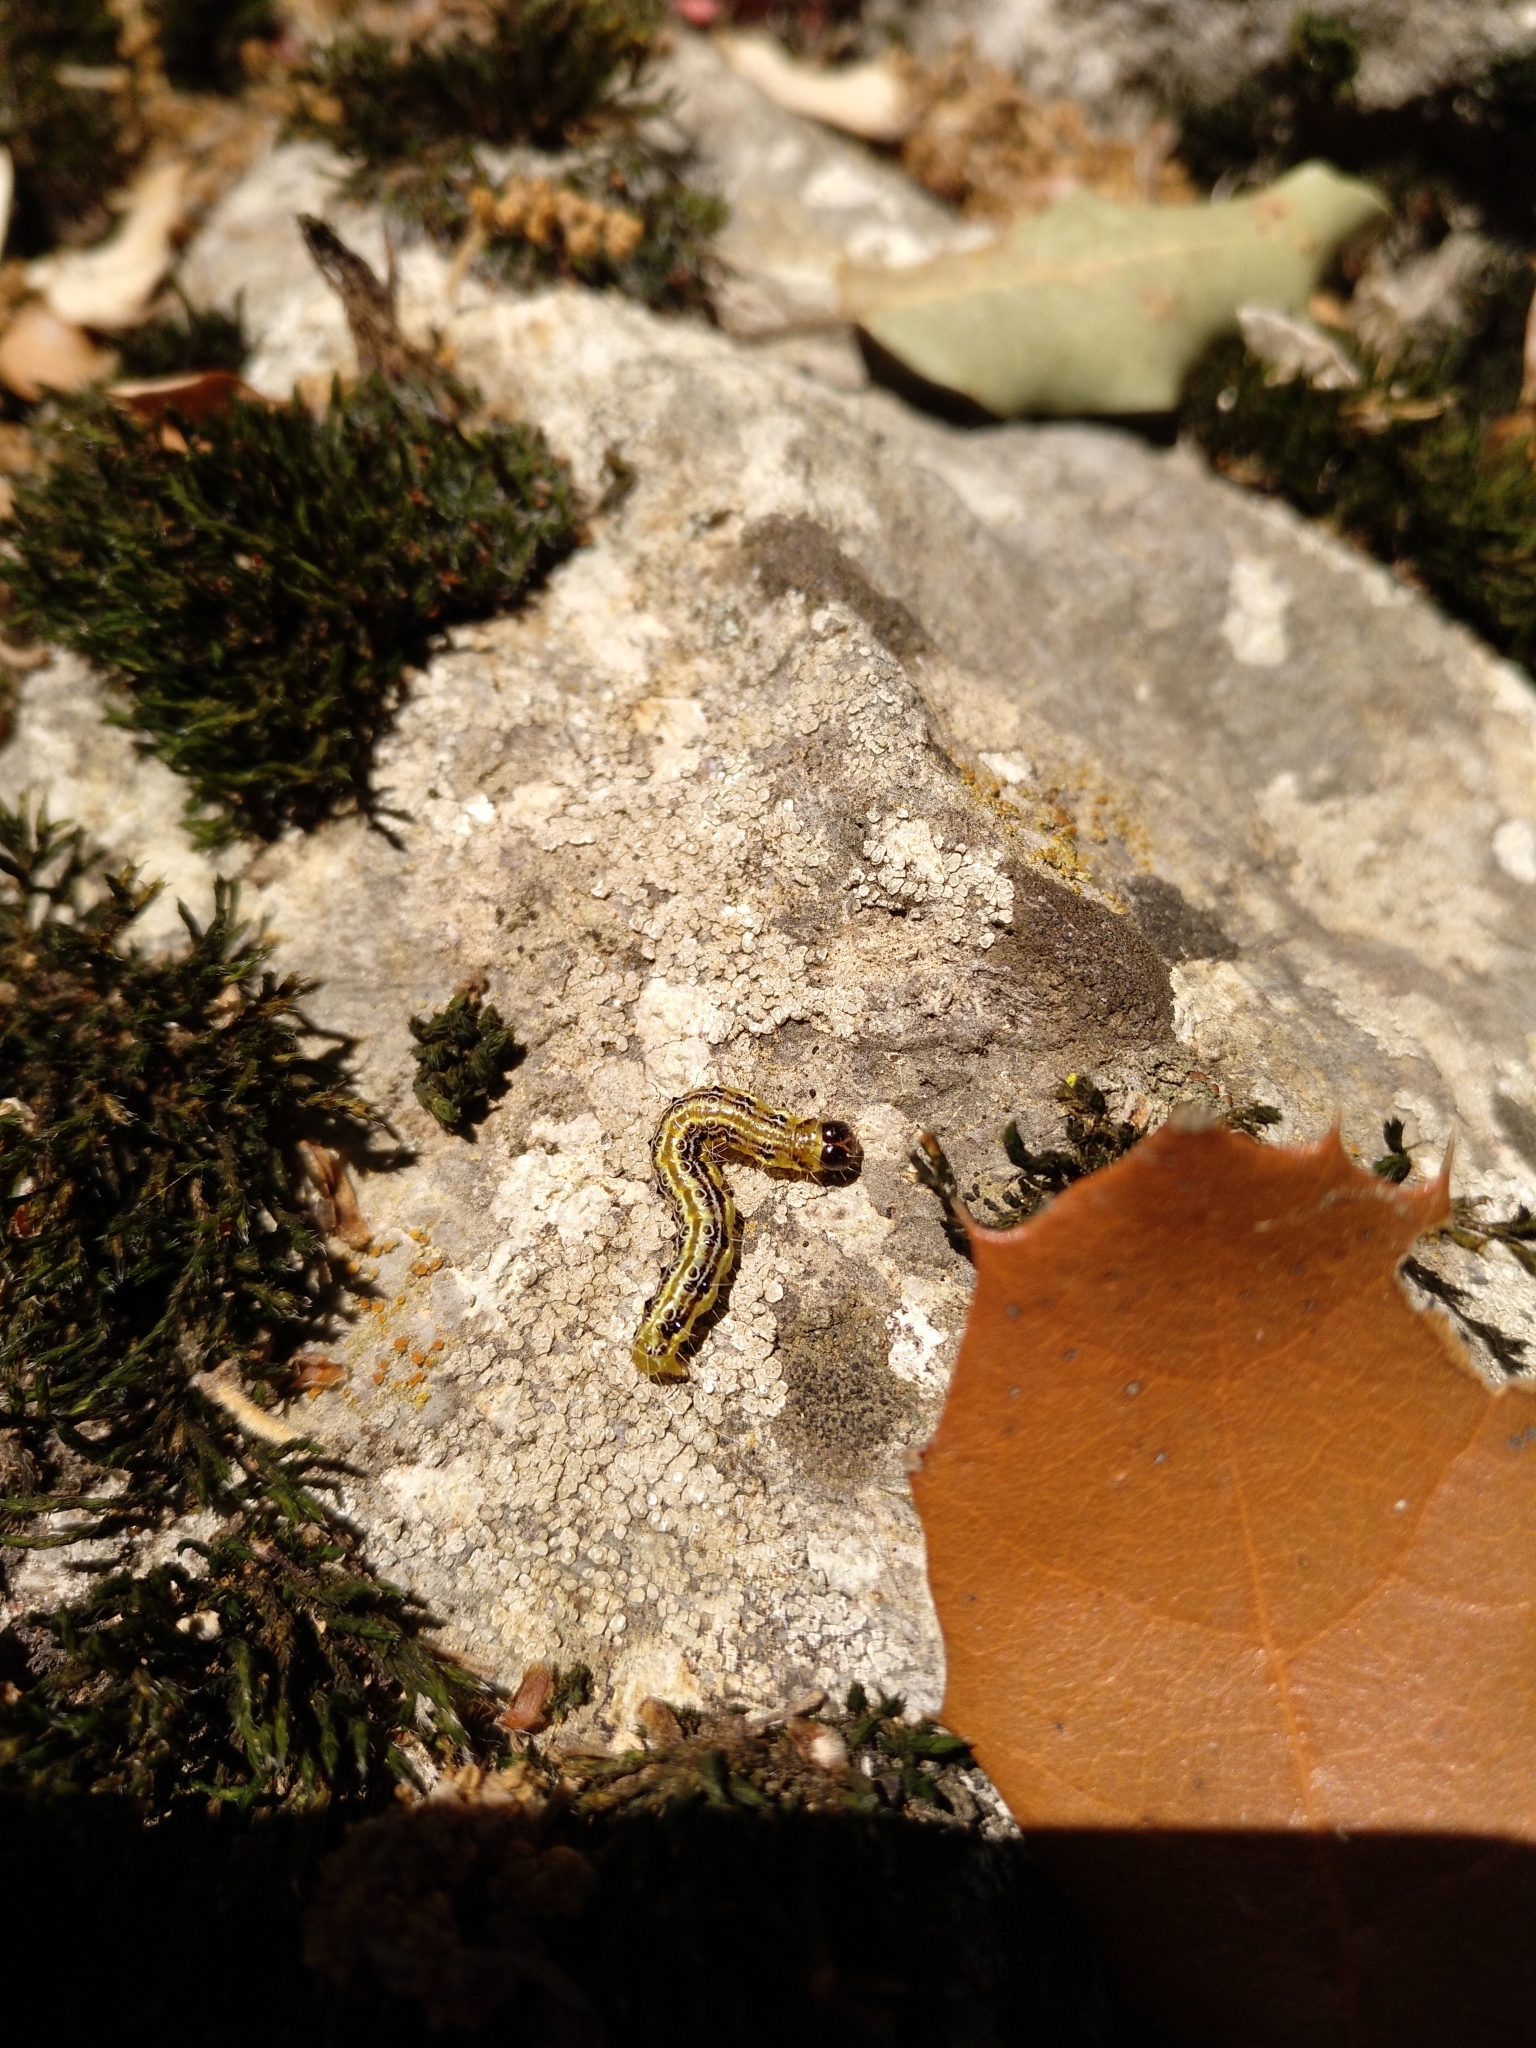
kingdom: Animalia
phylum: Arthropoda
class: Insecta
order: Lepidoptera
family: Crambidae
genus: Cydalima
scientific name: Cydalima perspectalis
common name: Box tree moth
